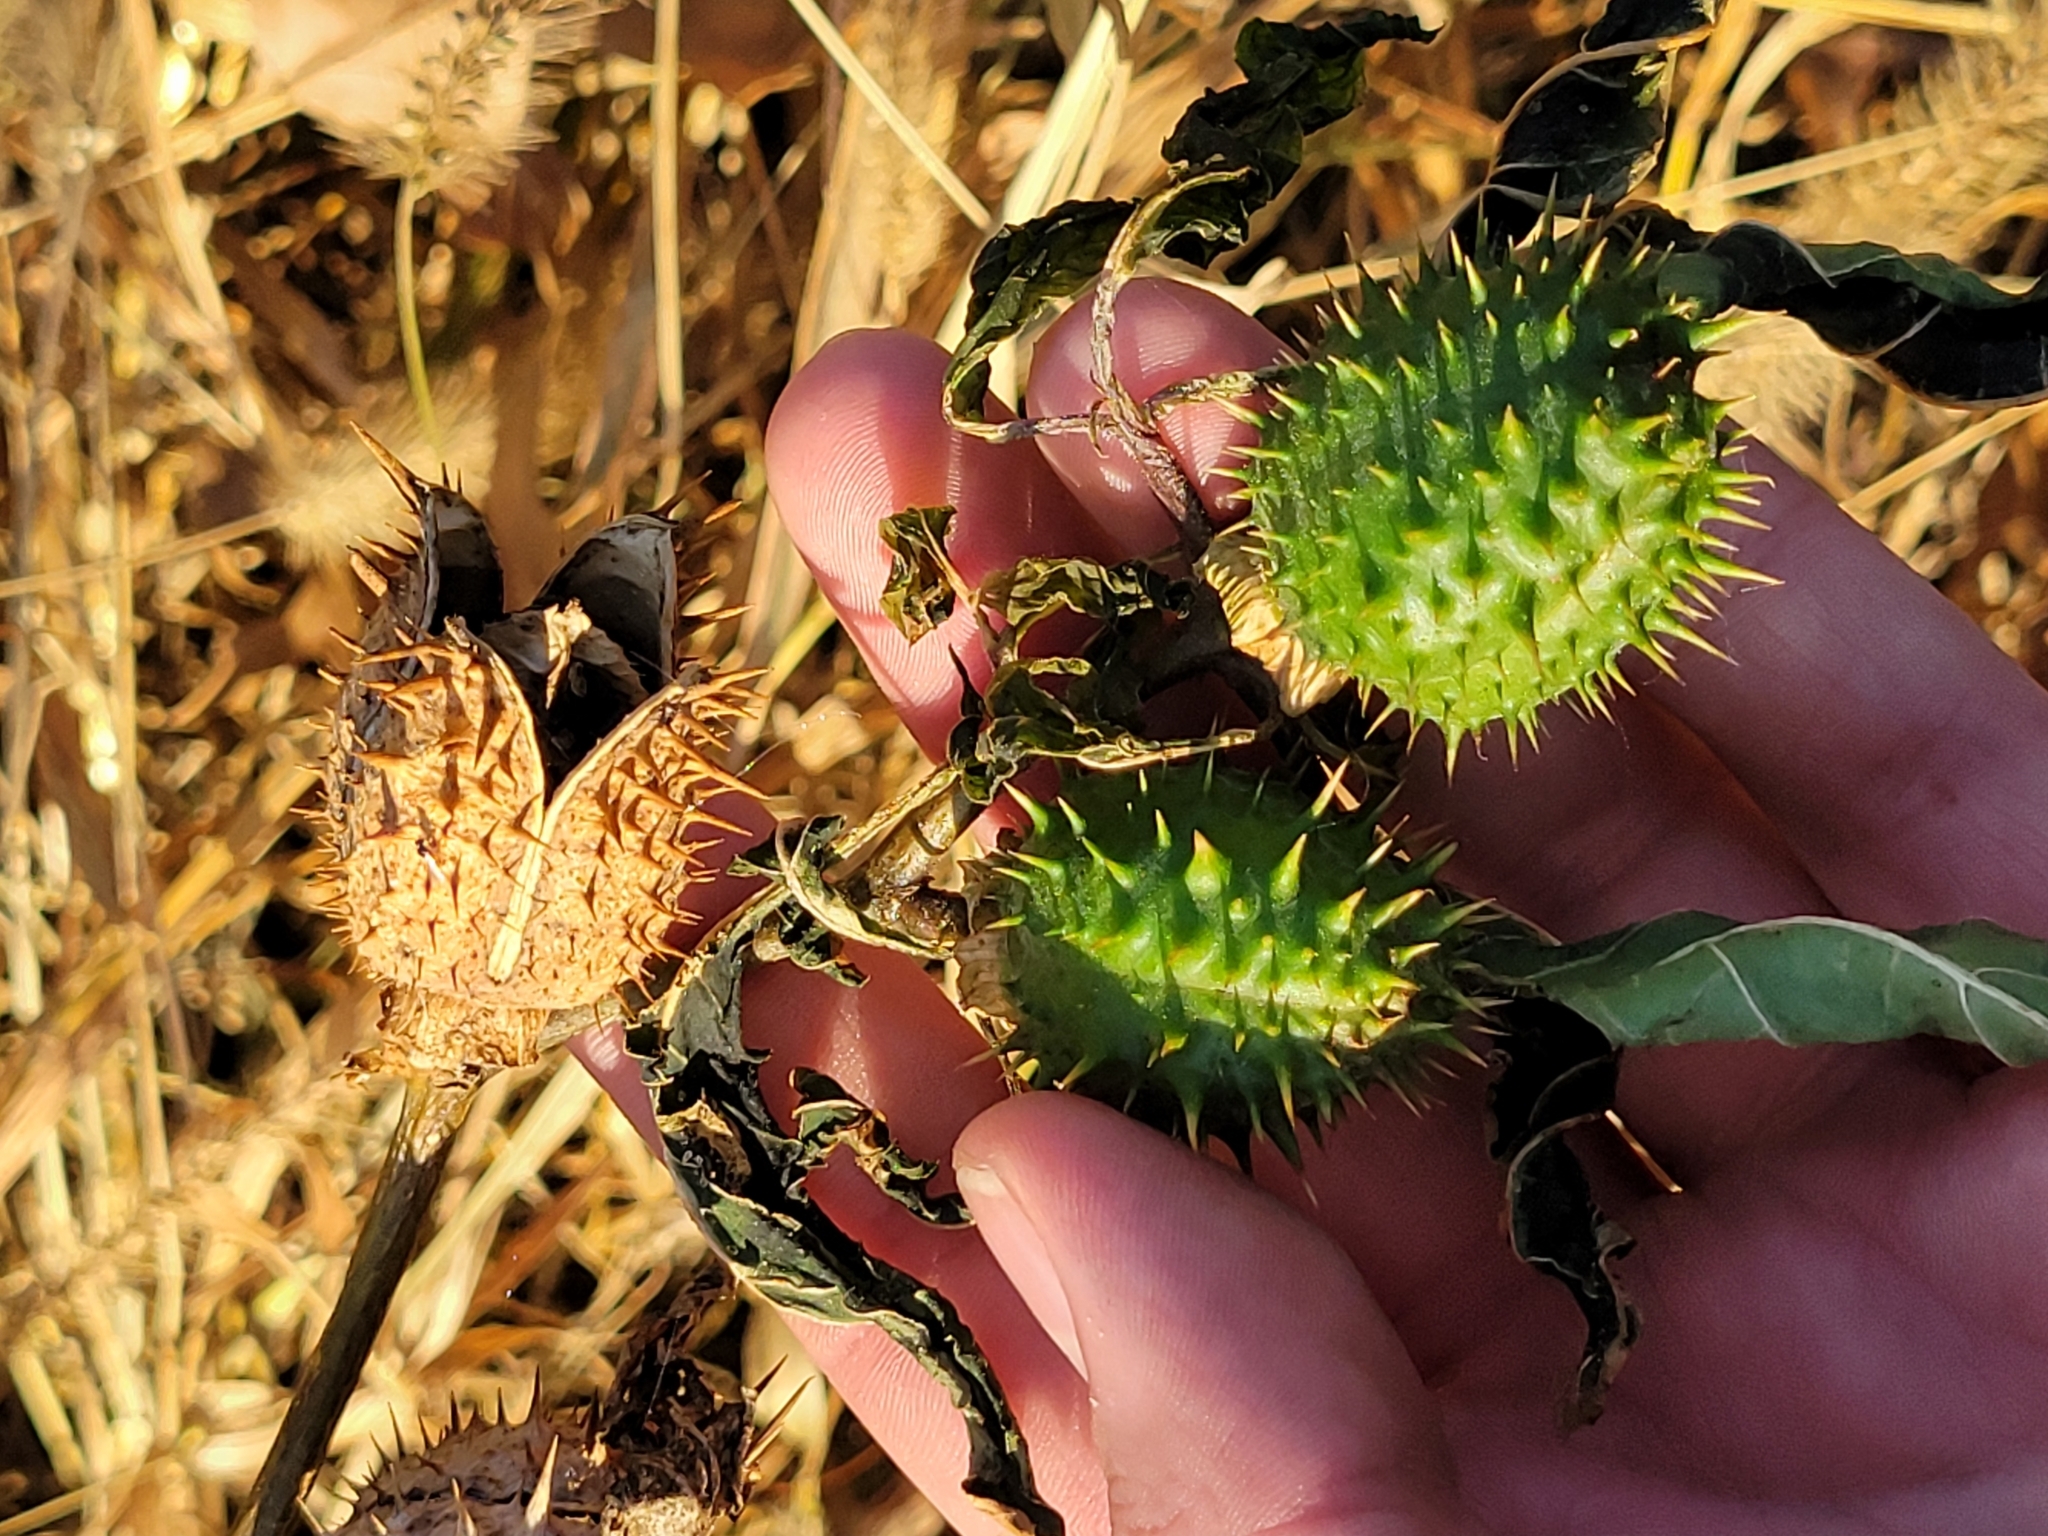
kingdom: Plantae
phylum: Tracheophyta
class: Magnoliopsida
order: Solanales
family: Solanaceae
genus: Datura
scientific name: Datura stramonium
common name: Thorn-apple
